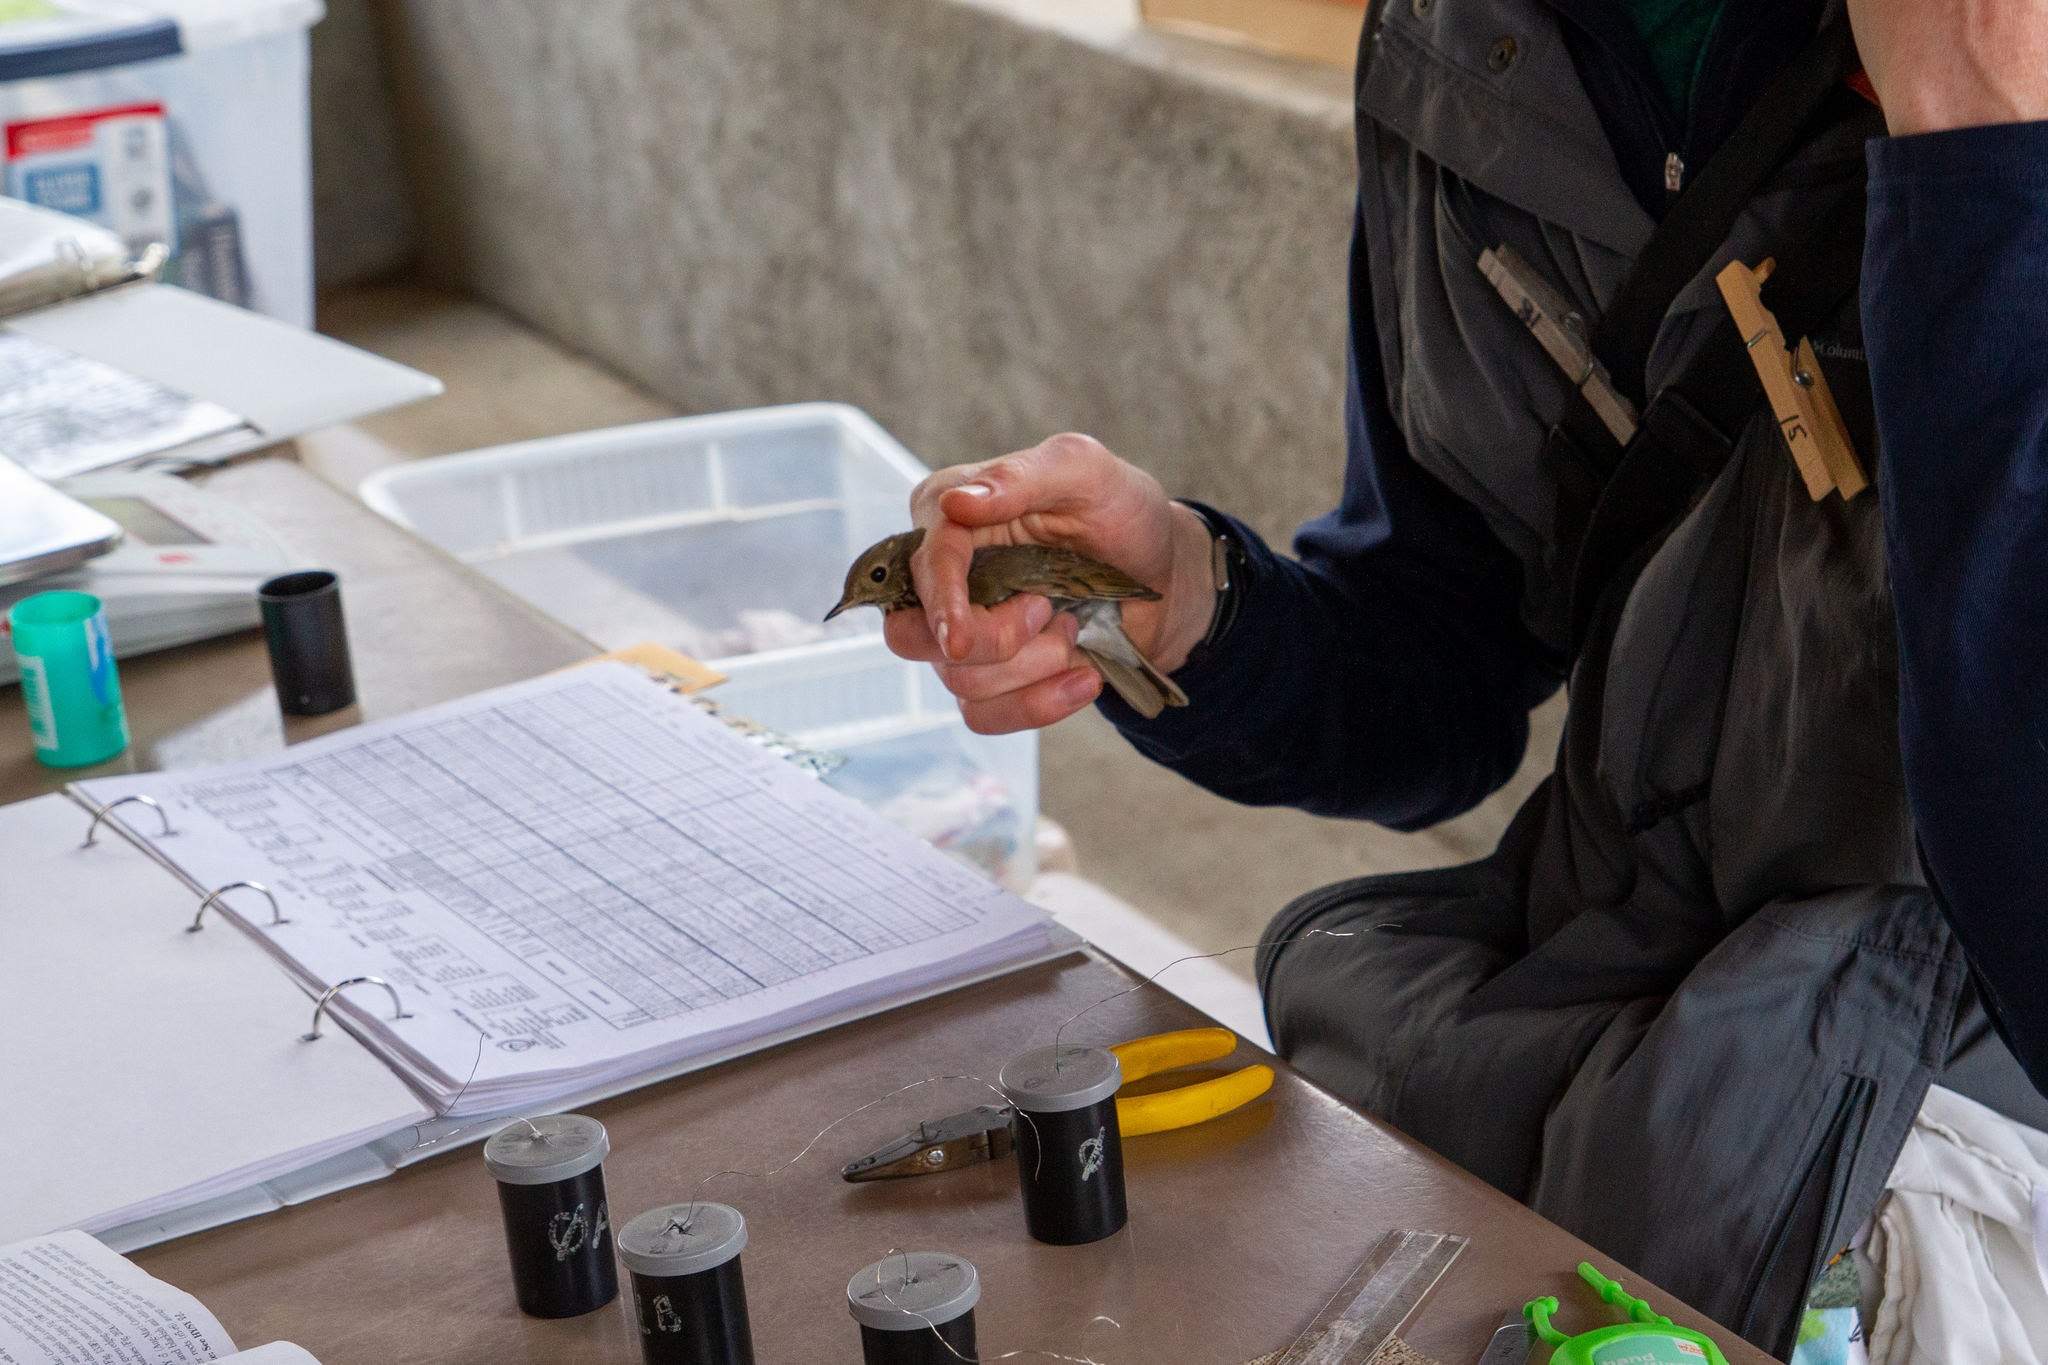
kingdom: Animalia
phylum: Chordata
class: Aves
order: Passeriformes
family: Turdidae
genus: Catharus
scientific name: Catharus guttatus
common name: Hermit thrush
